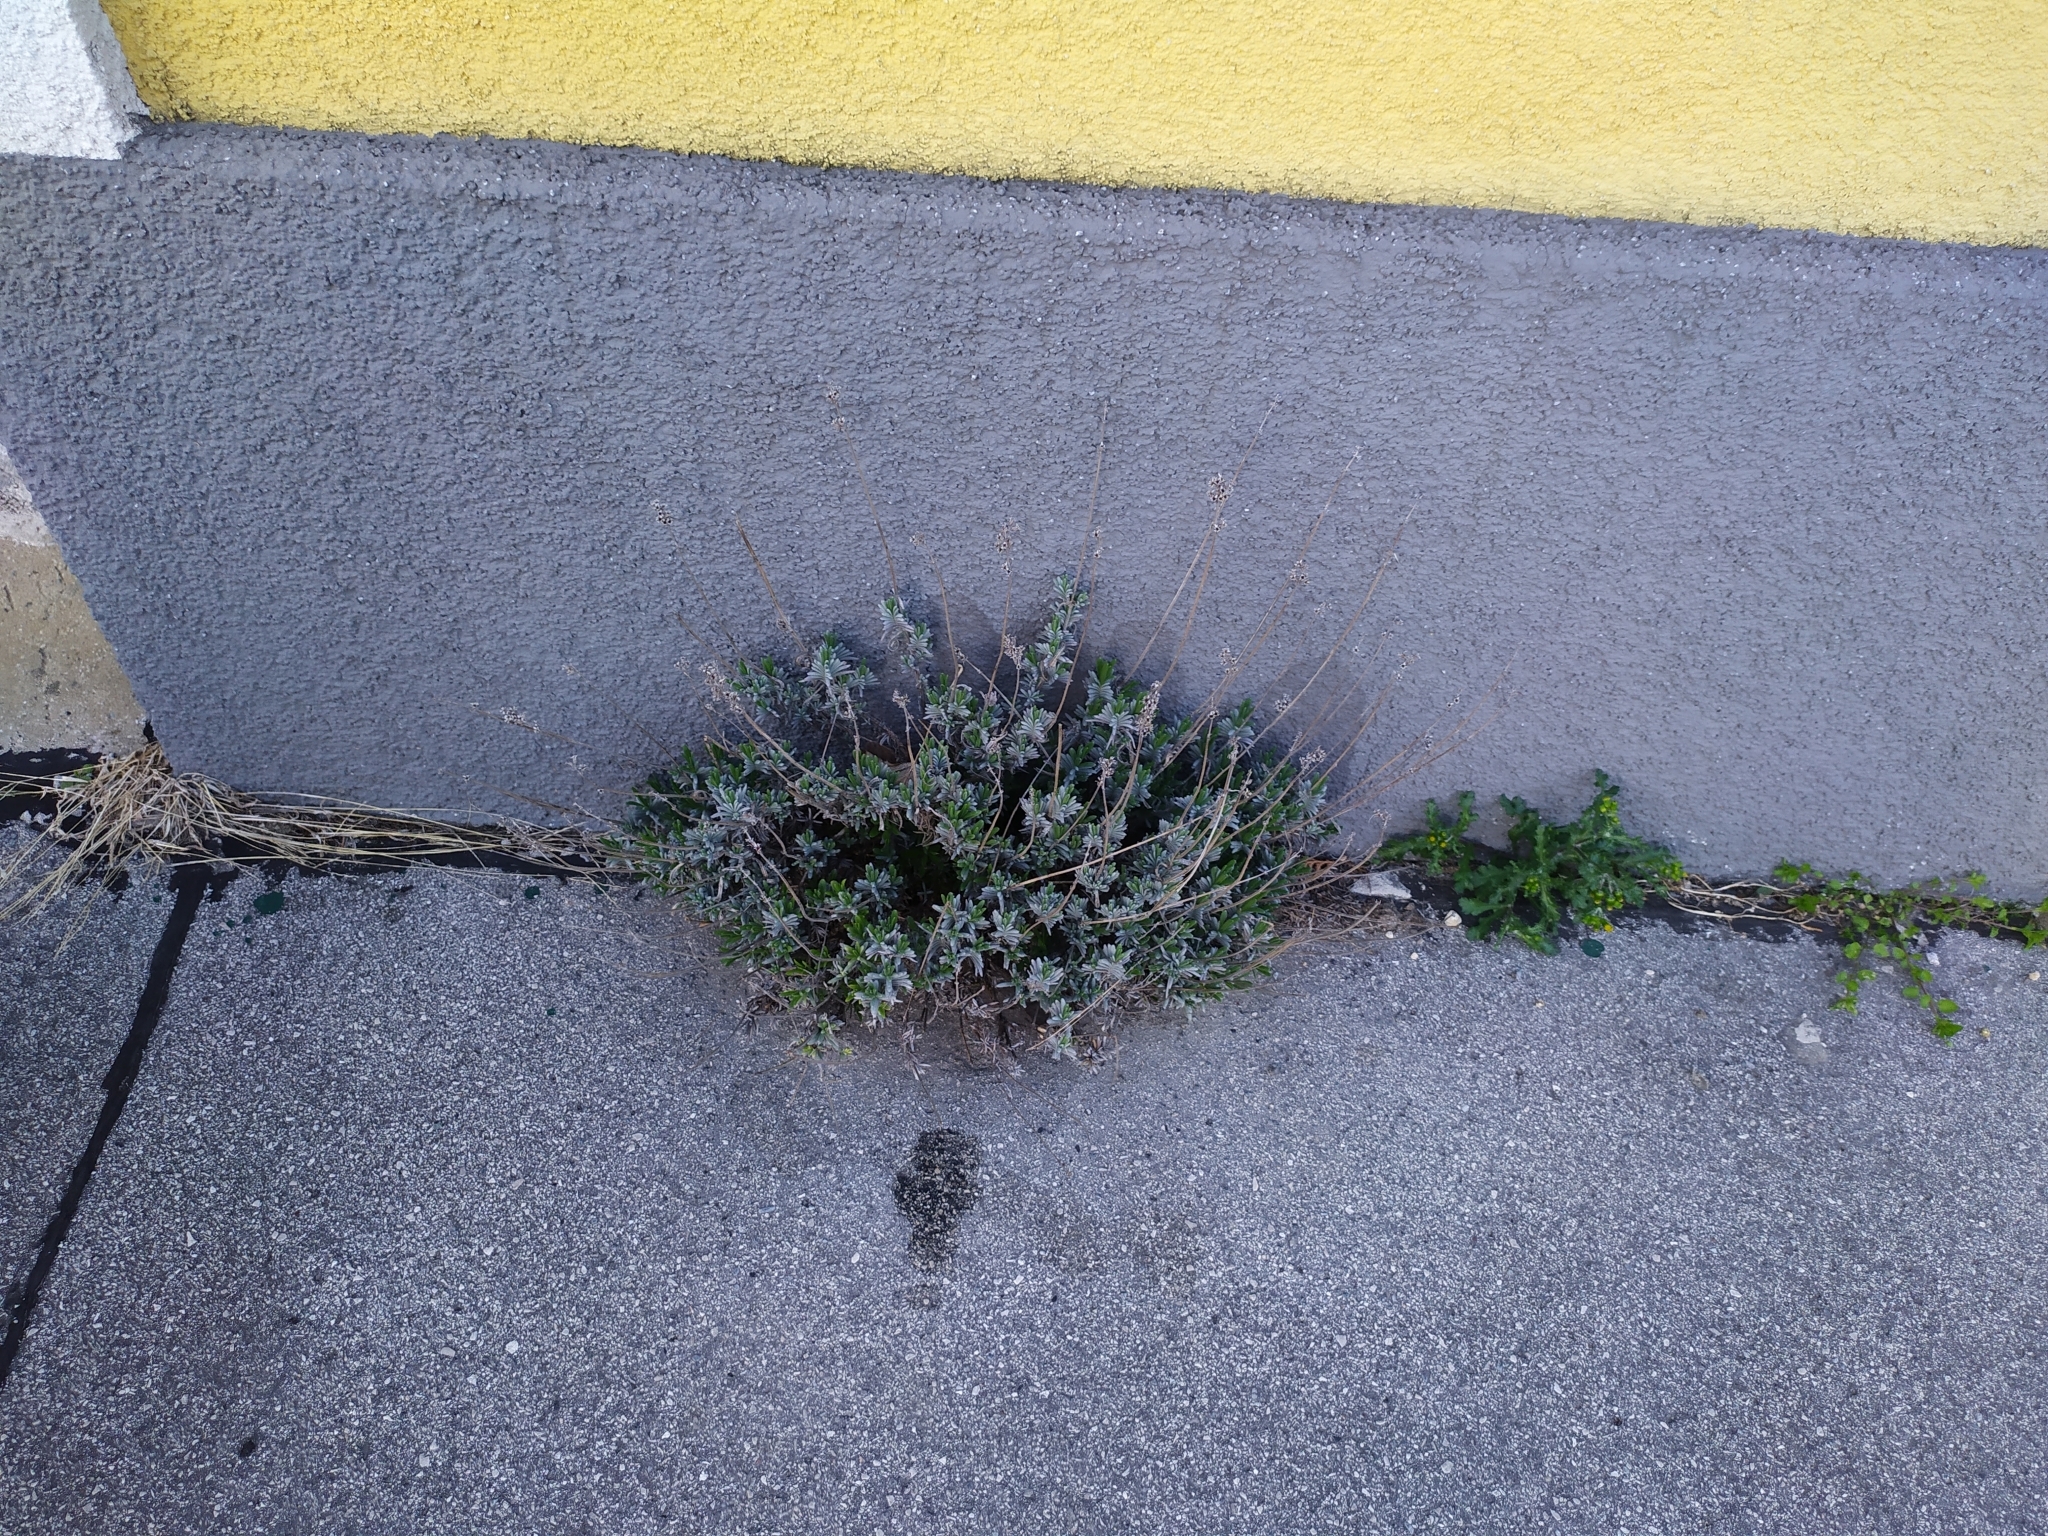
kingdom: Plantae
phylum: Tracheophyta
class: Magnoliopsida
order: Lamiales
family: Lamiaceae
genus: Lavandula
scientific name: Lavandula angustifolia
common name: Garden lavender
